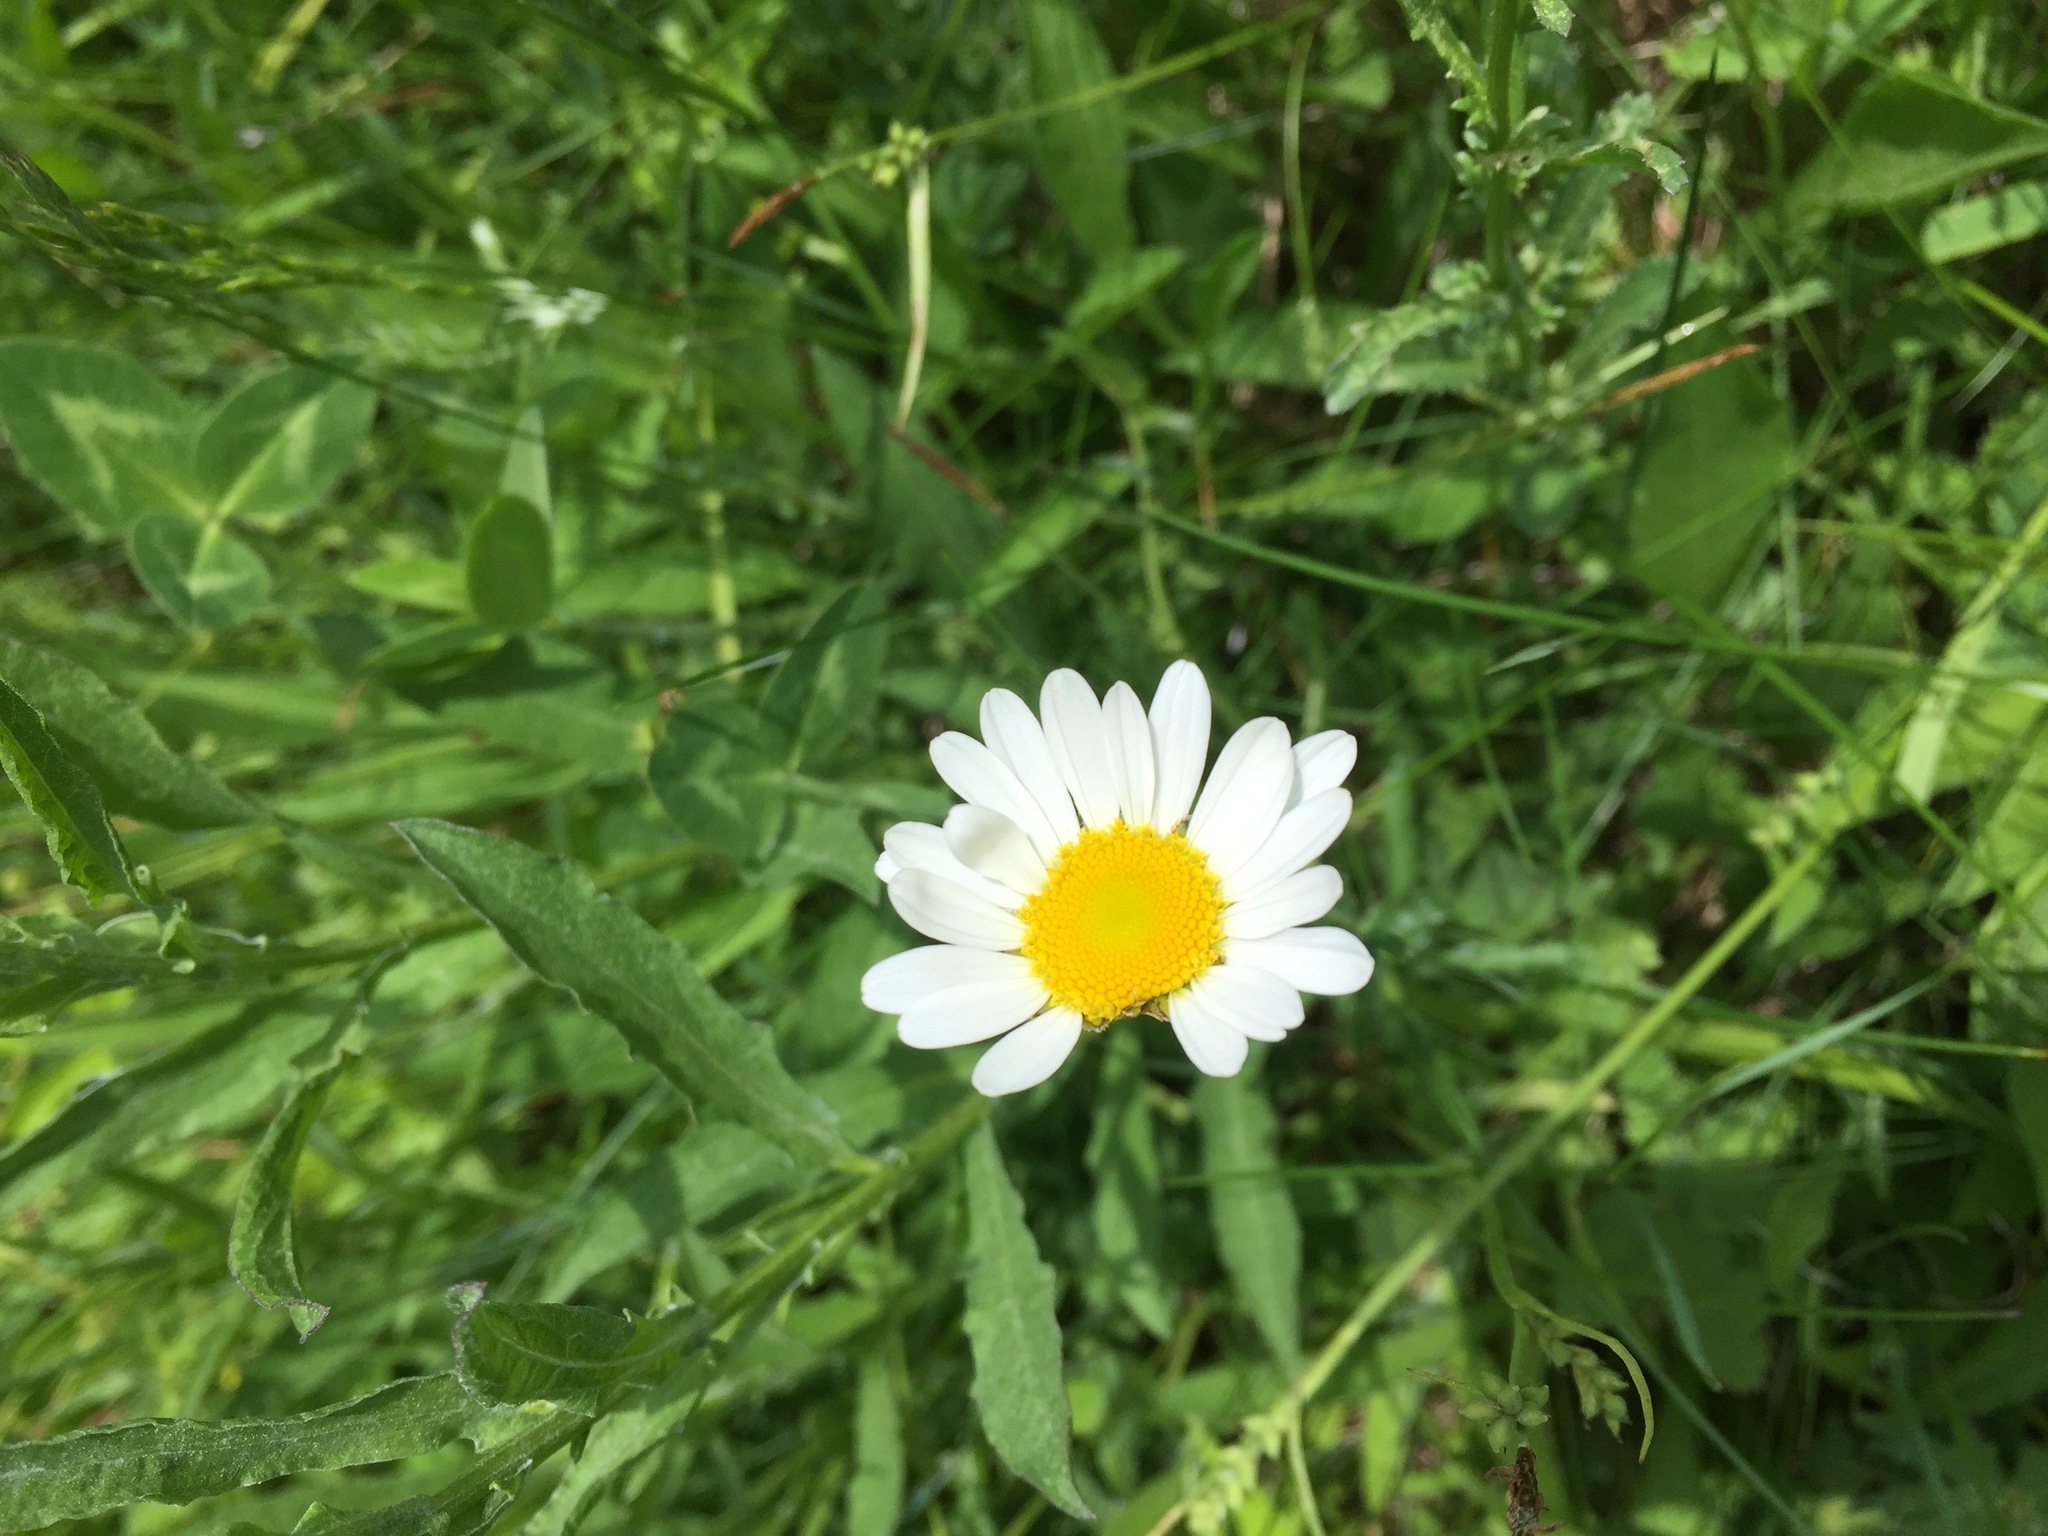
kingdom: Plantae
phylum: Tracheophyta
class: Magnoliopsida
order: Asterales
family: Asteraceae
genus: Leucanthemum
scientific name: Leucanthemum vulgare
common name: Oxeye daisy
